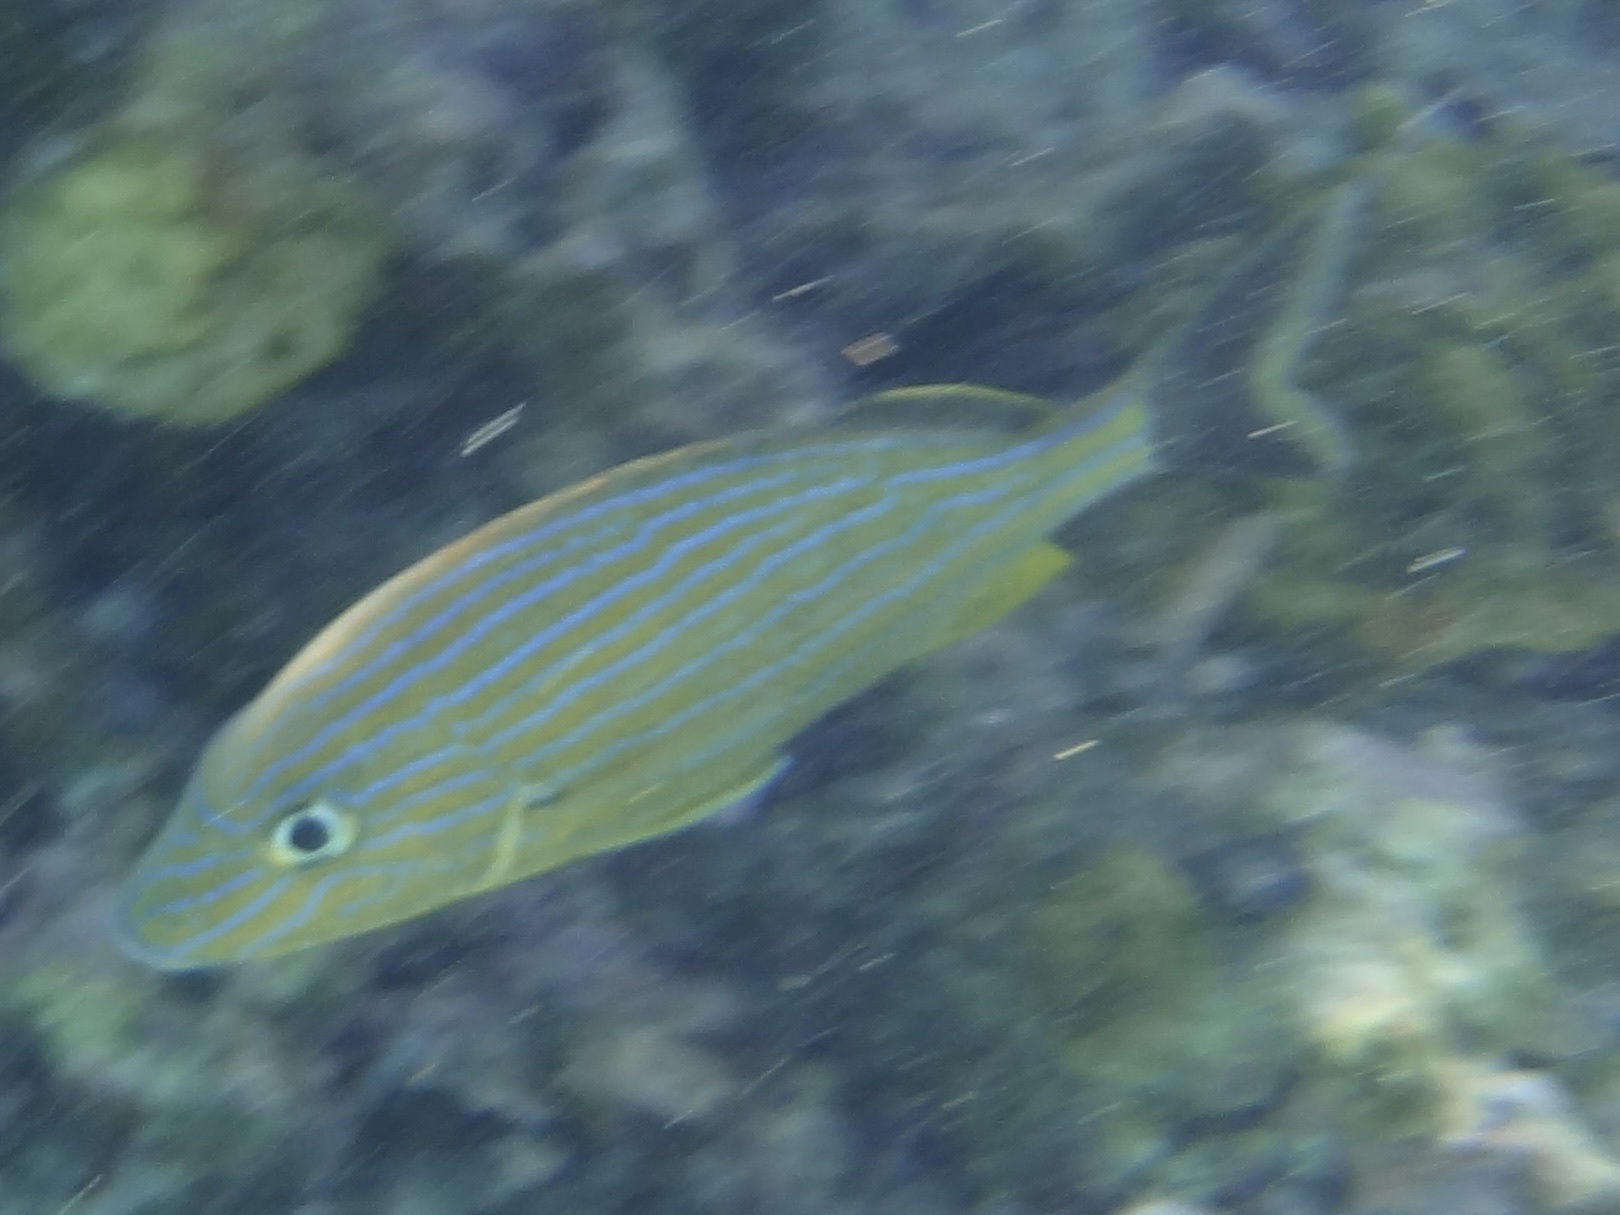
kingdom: Animalia
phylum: Chordata
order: Perciformes
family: Haemulidae
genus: Haemulon
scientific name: Haemulon sciurus
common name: Bluestriped grunt
